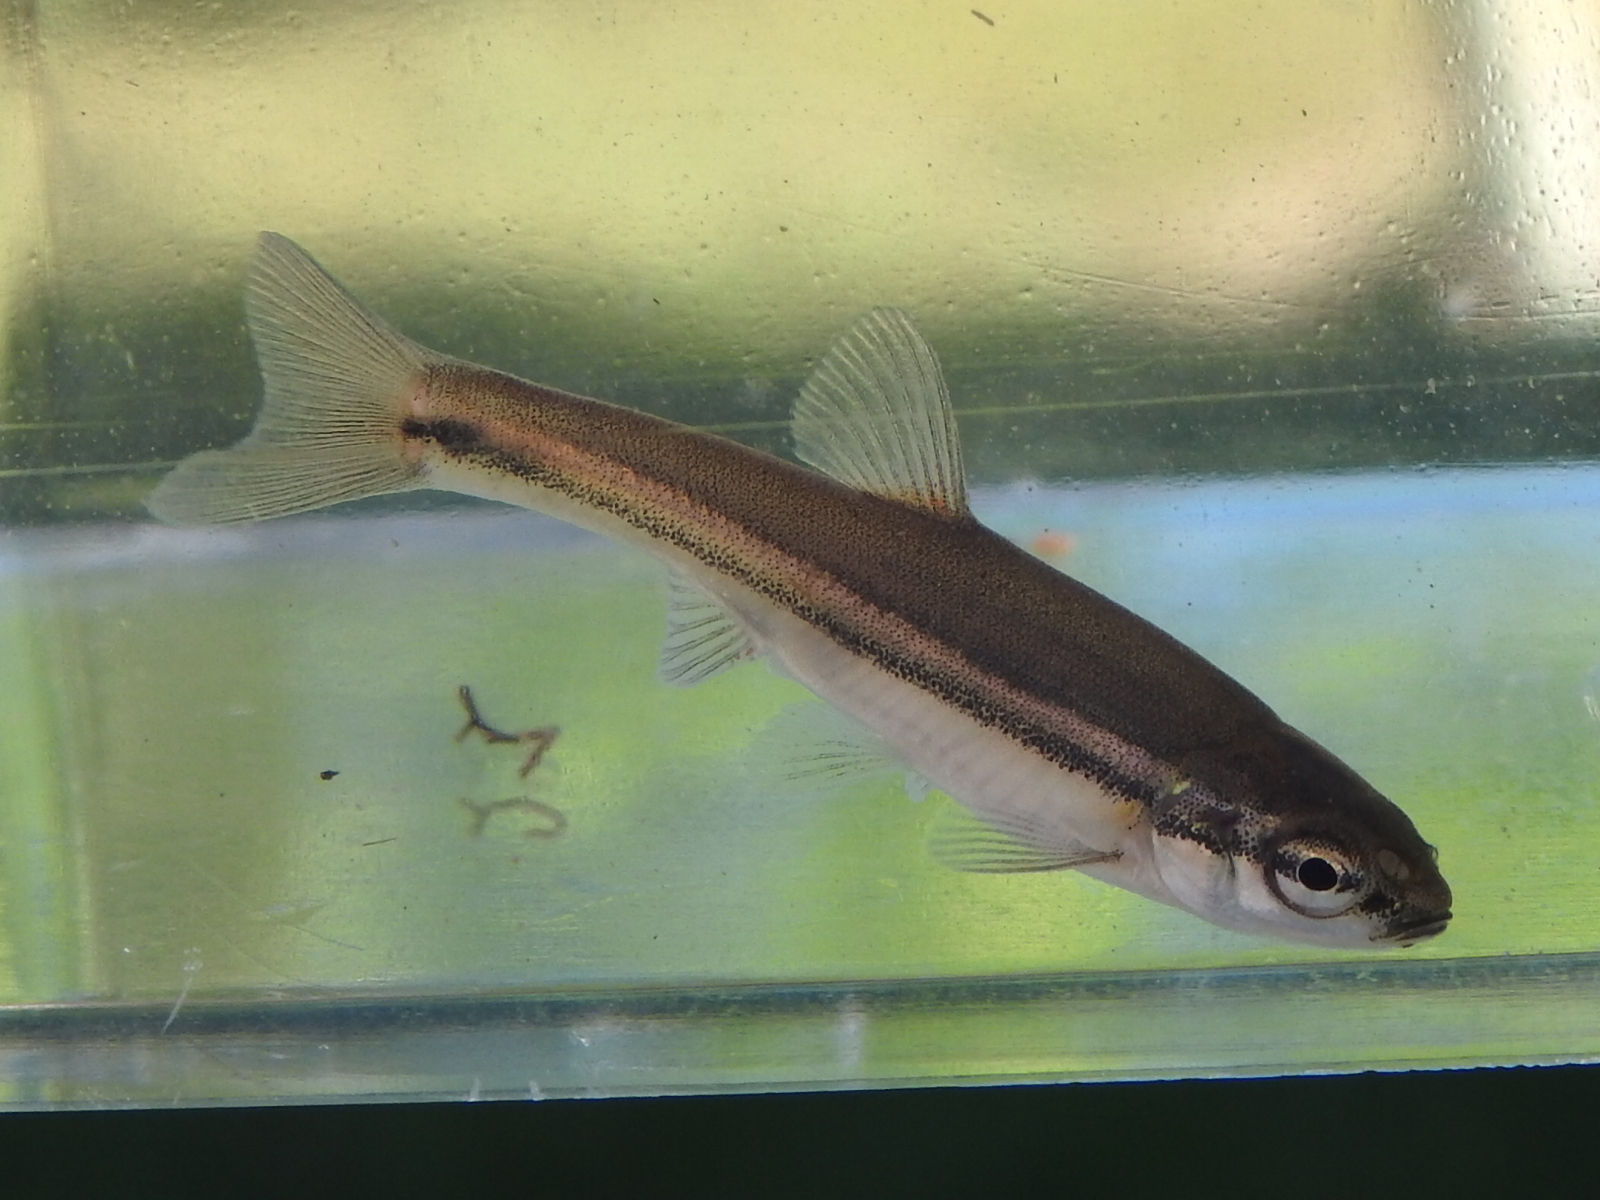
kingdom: Animalia
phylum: Chordata
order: Cypriniformes
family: Cyprinidae
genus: Chrosomus
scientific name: Chrosomus erythrogaster
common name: Southern redbelly dace
